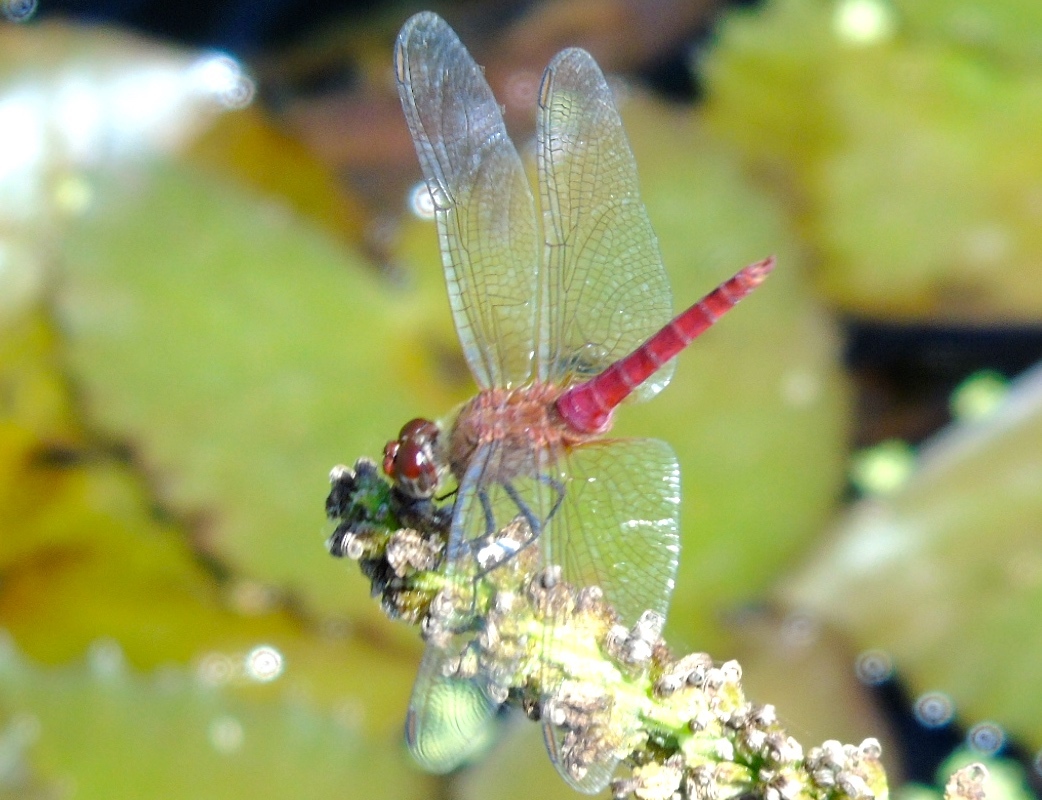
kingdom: Animalia
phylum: Arthropoda
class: Insecta
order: Odonata
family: Libellulidae
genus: Brachymesia
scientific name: Brachymesia furcata
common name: Red-taled pennant
